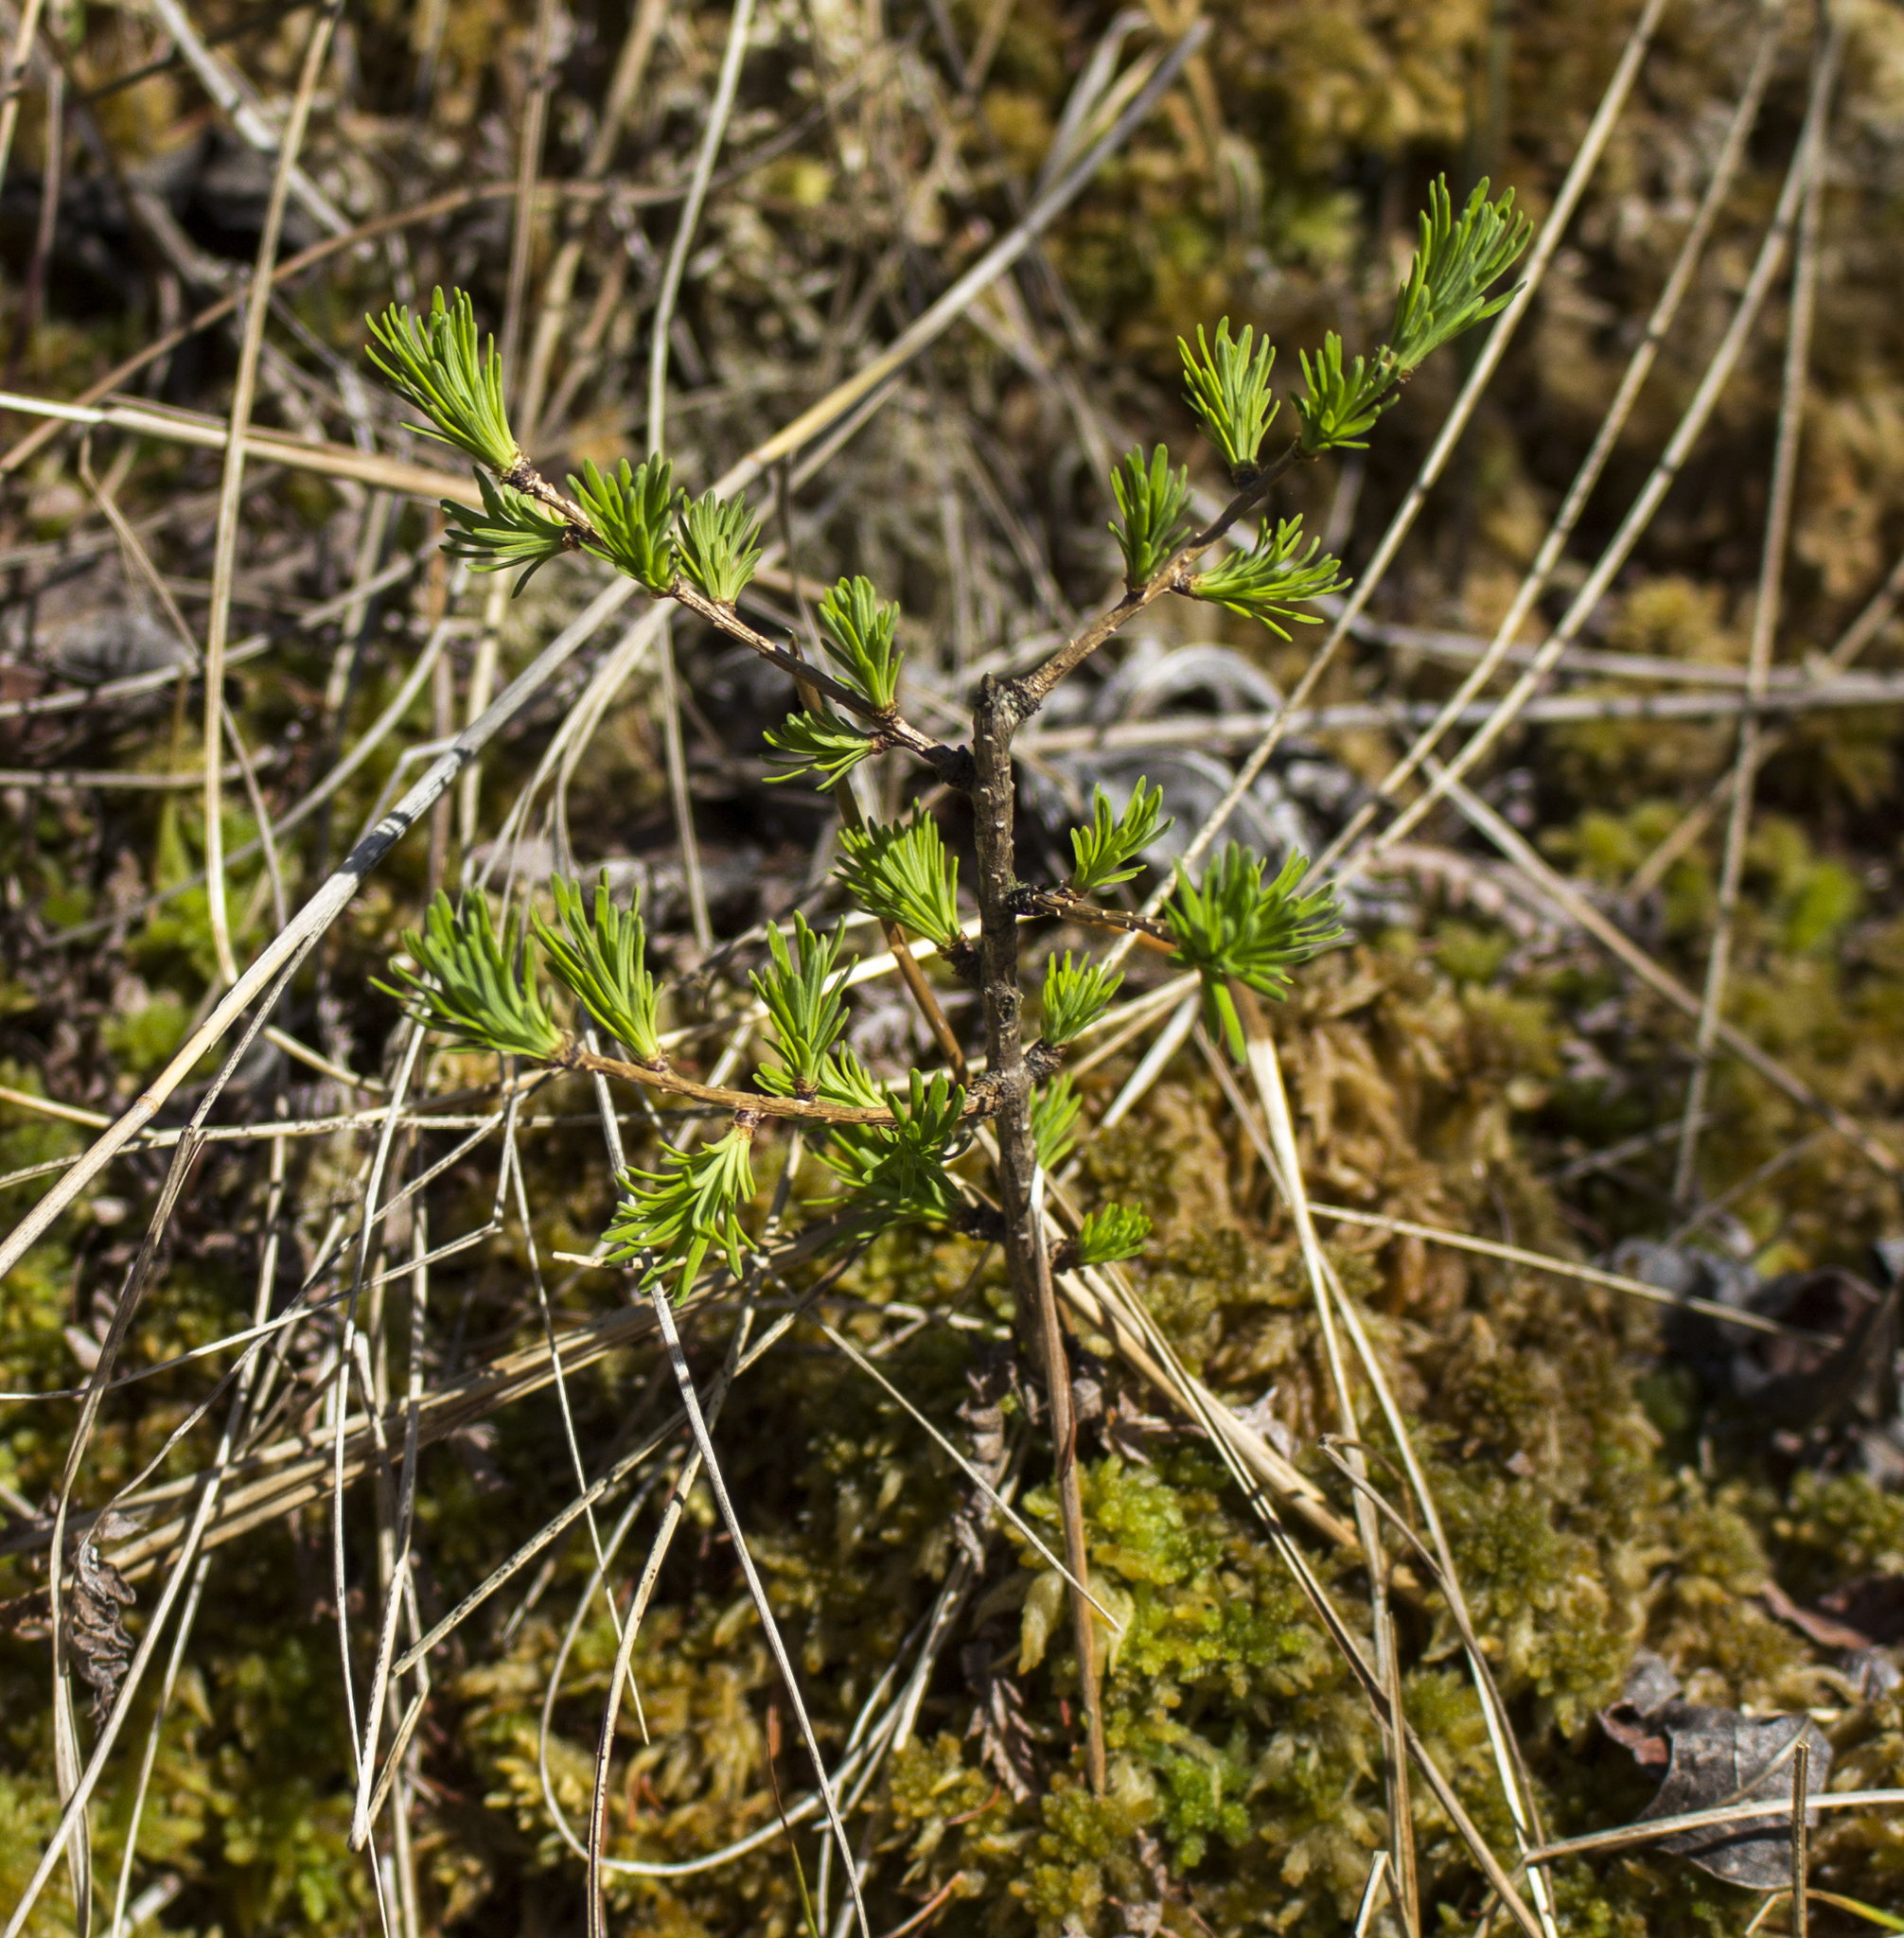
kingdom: Plantae
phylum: Tracheophyta
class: Pinopsida
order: Pinales
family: Pinaceae
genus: Larix
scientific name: Larix laricina
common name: American larch
